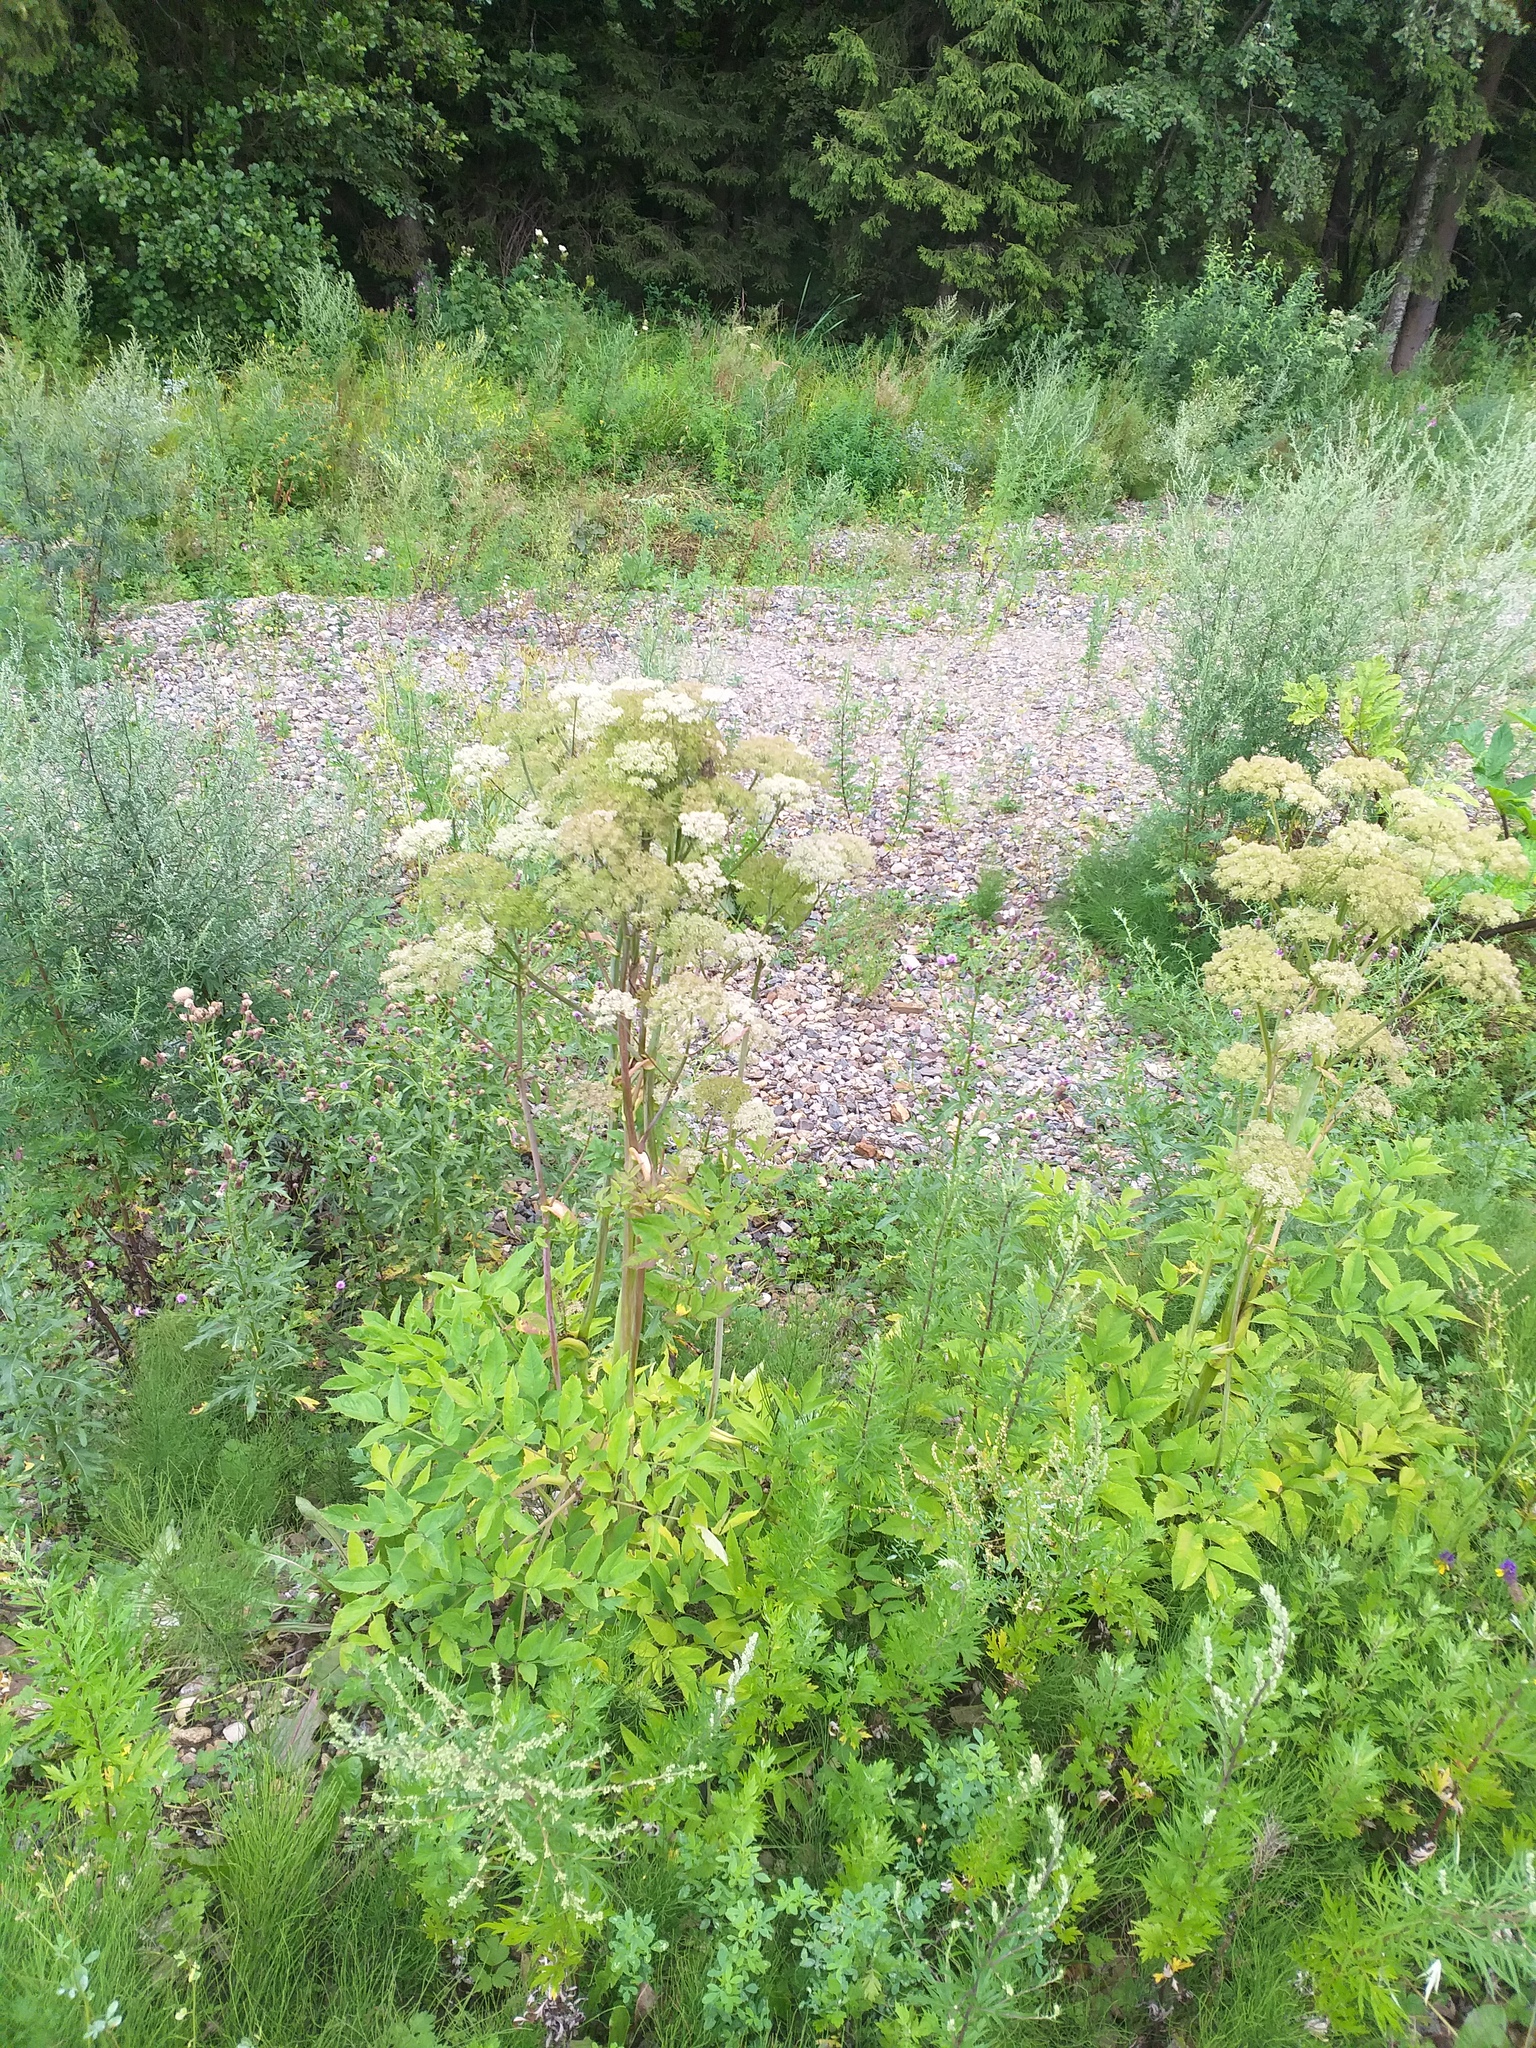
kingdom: Plantae
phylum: Tracheophyta
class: Magnoliopsida
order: Apiales
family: Apiaceae
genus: Angelica
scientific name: Angelica sylvestris
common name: Wild angelica
